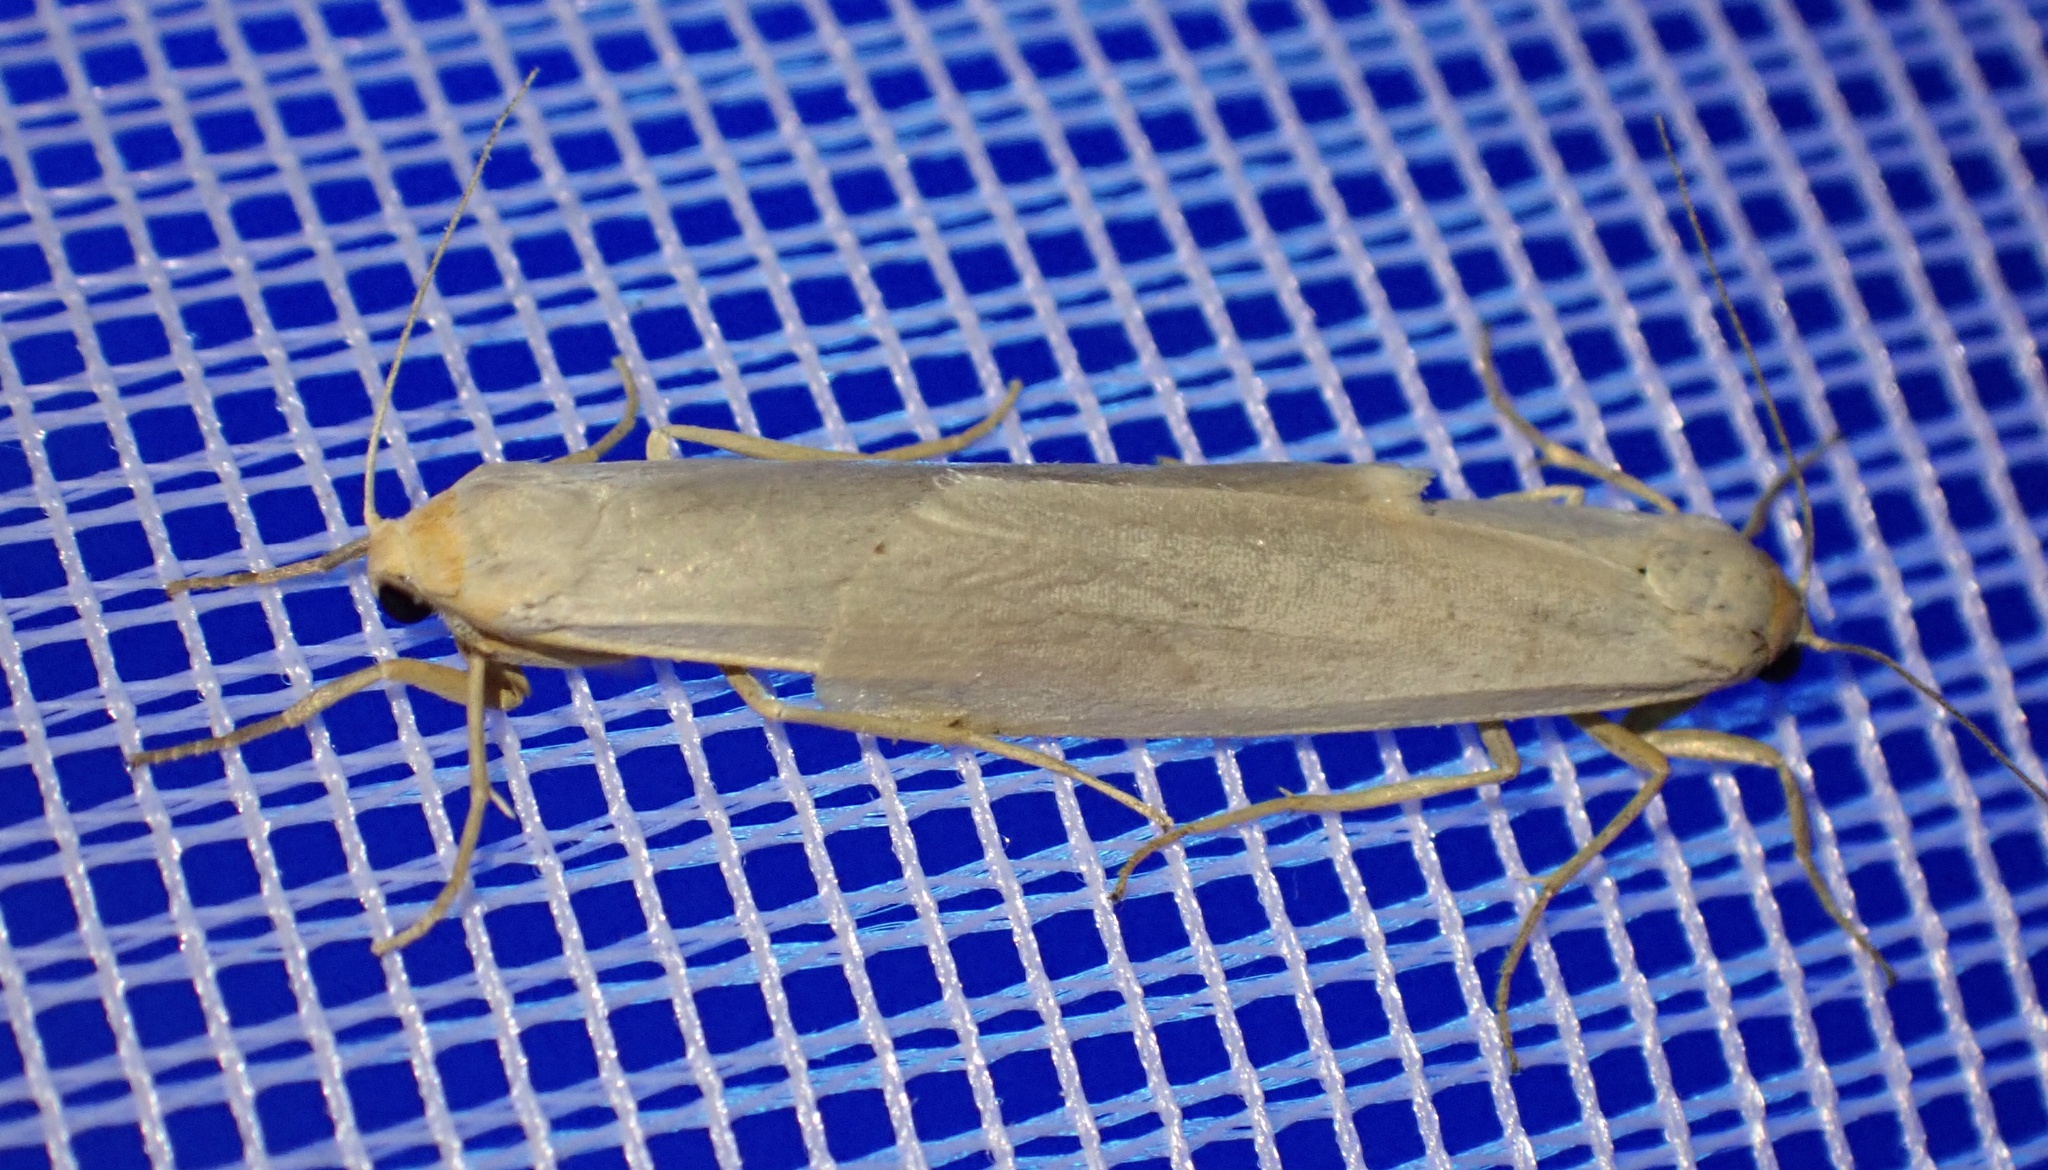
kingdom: Animalia
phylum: Arthropoda
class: Insecta
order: Lepidoptera
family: Erebidae
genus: Eilema
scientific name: Eilema caniola
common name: Hoary footman
